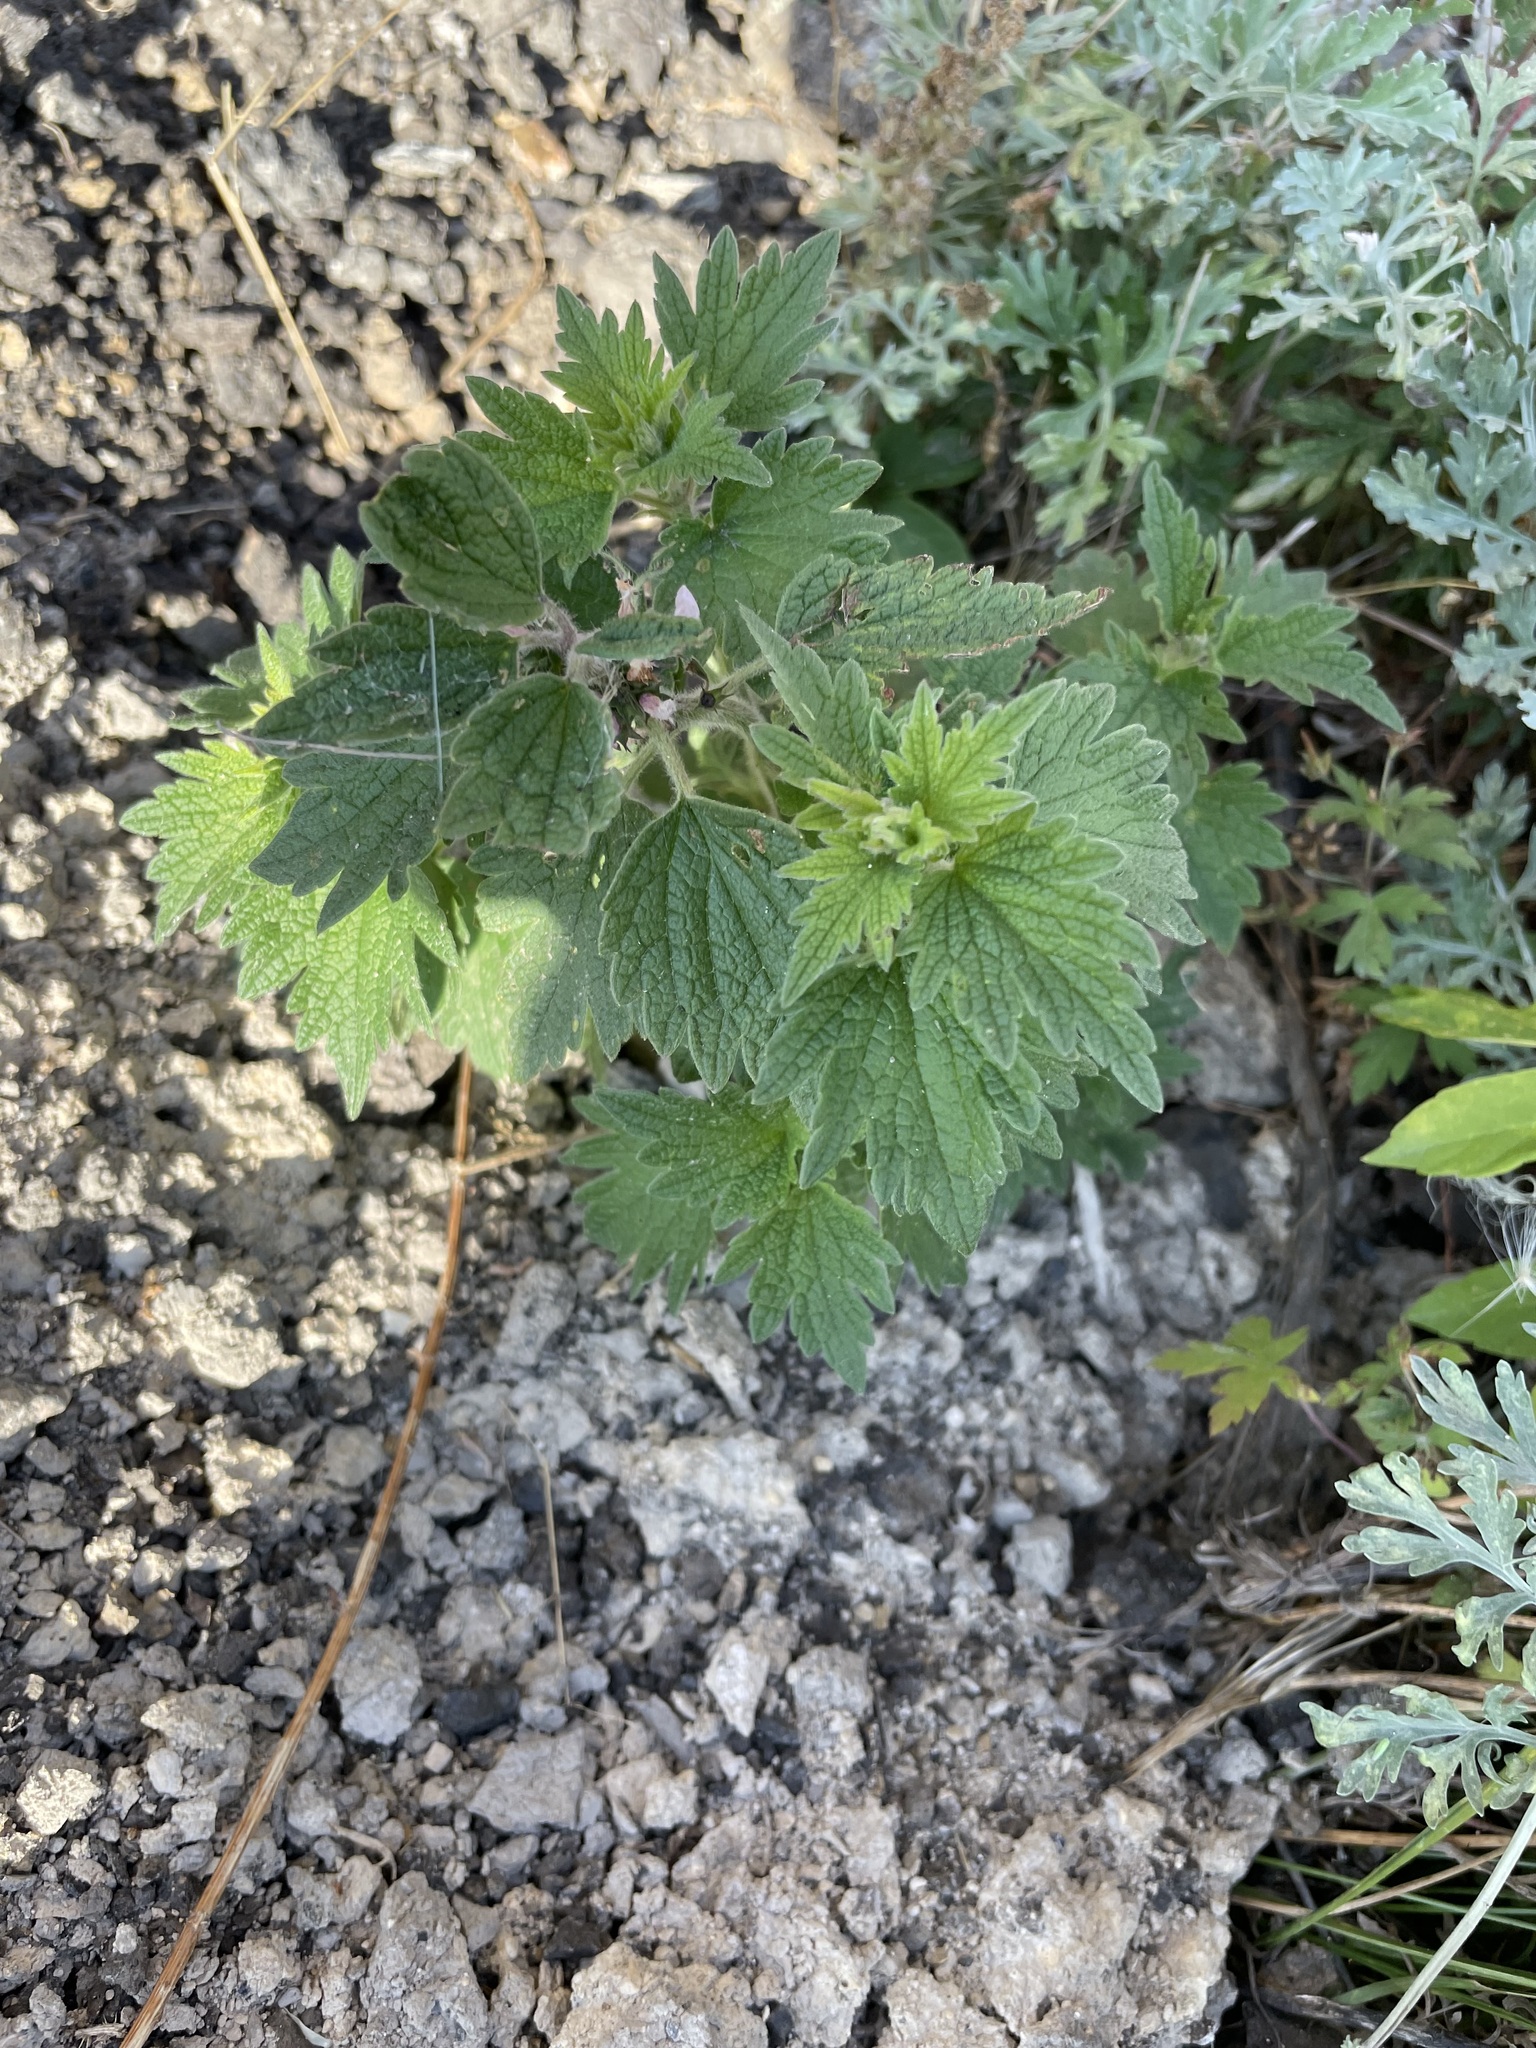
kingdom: Plantae
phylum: Tracheophyta
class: Magnoliopsida
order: Lamiales
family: Lamiaceae
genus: Leonurus
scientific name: Leonurus quinquelobatus
